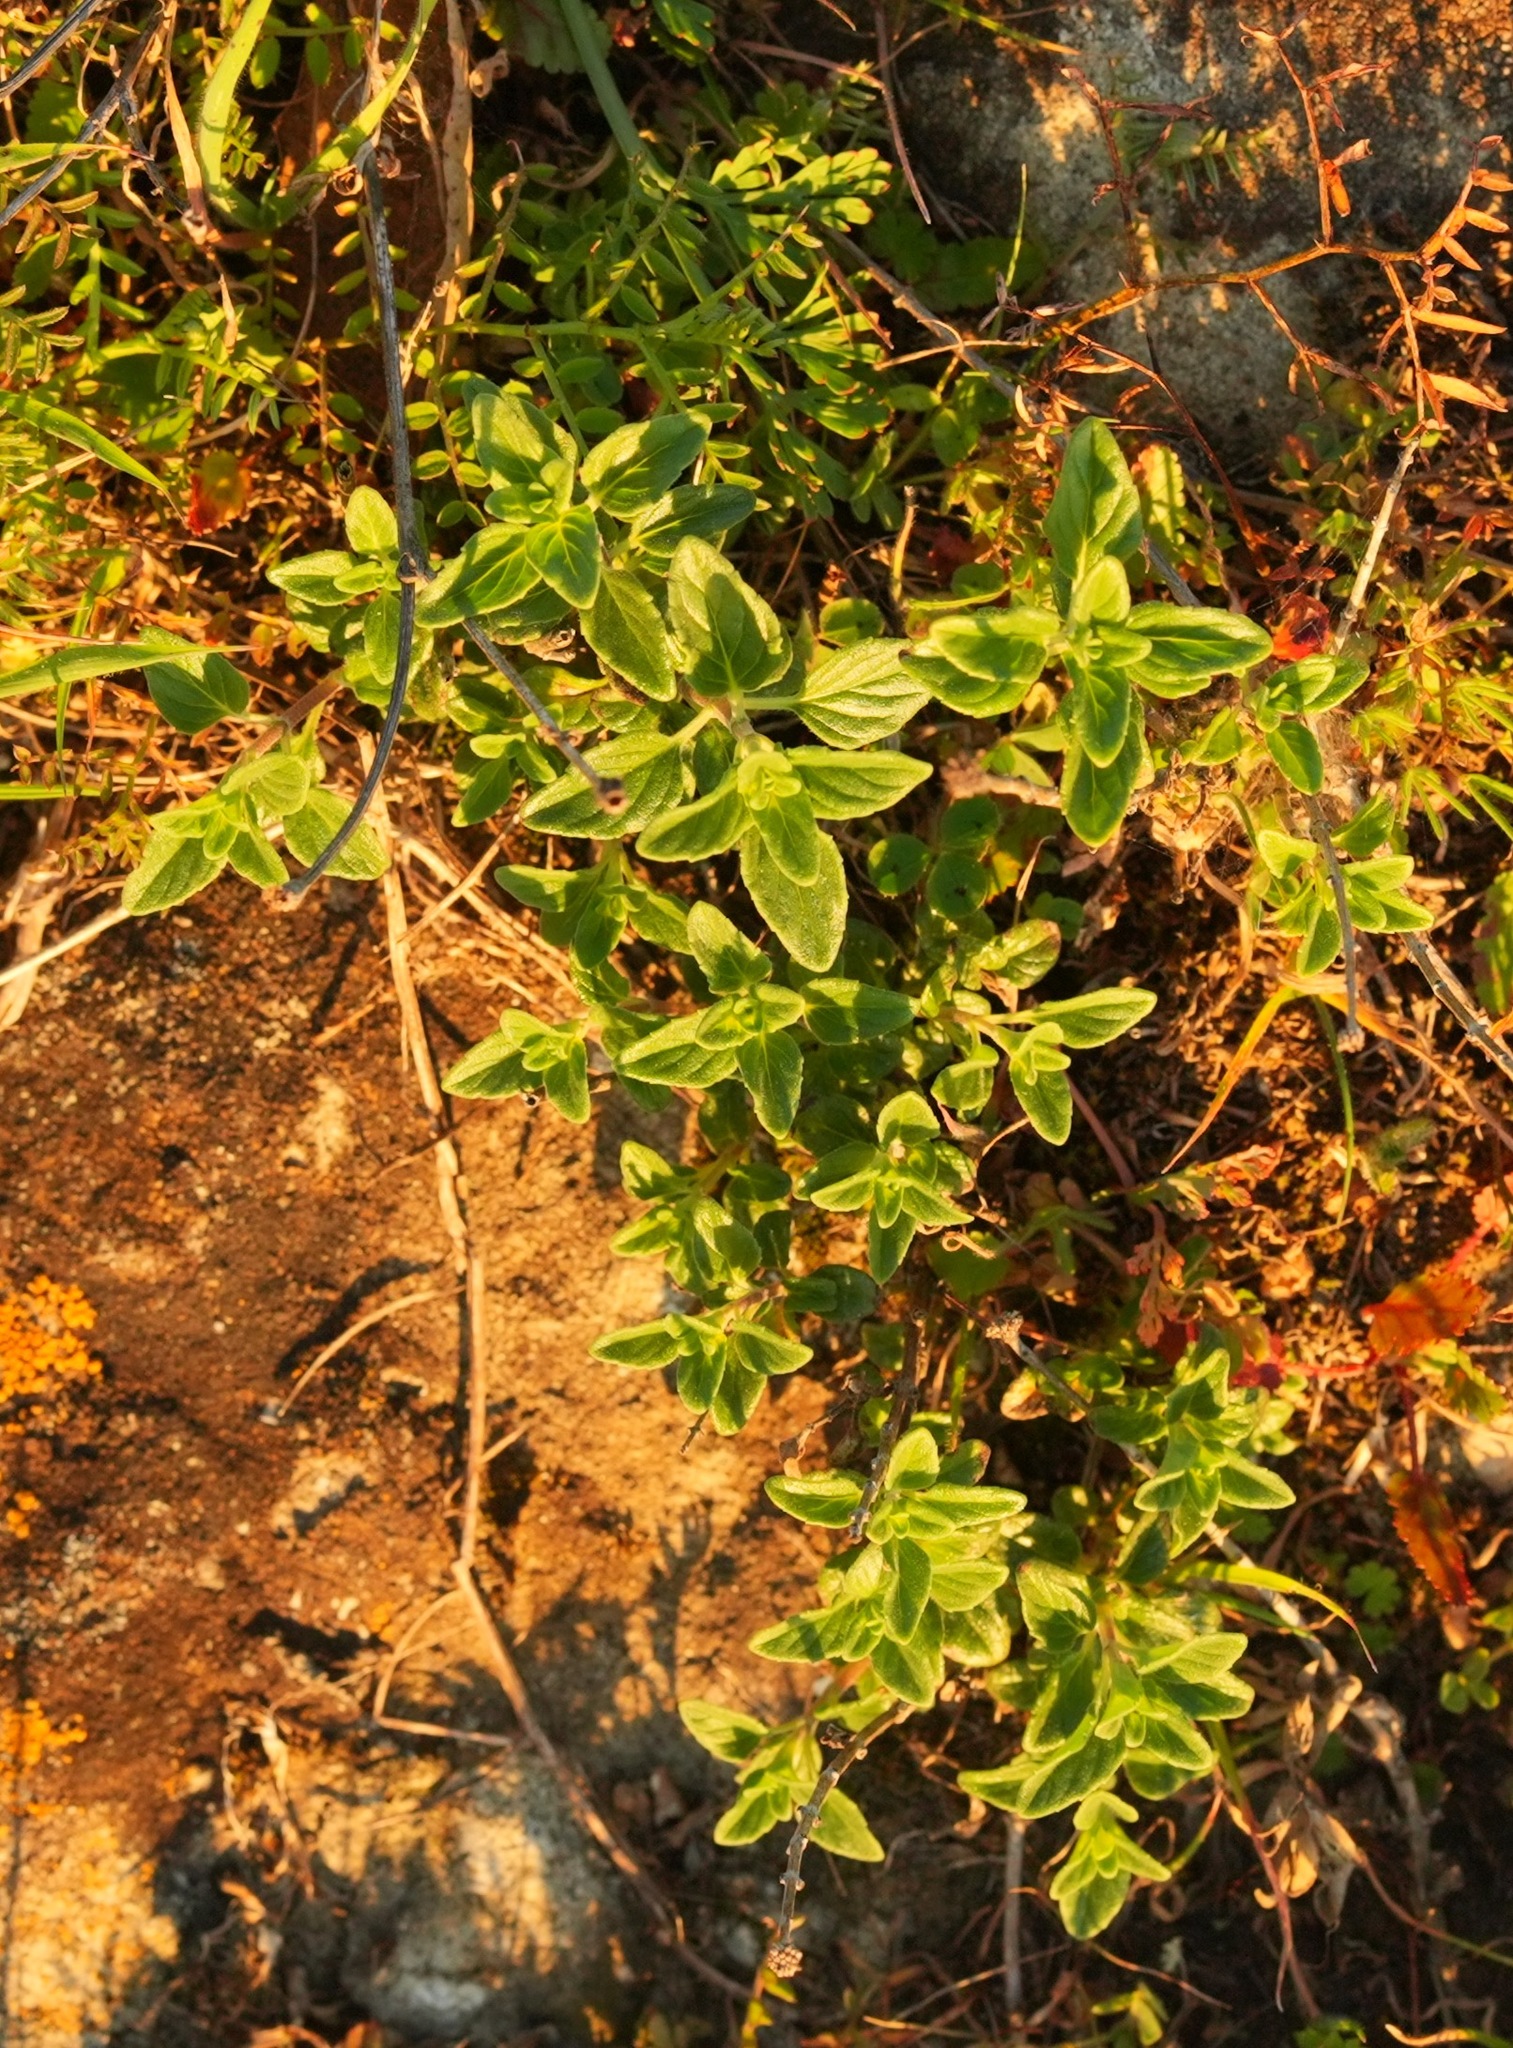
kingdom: Plantae
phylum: Tracheophyta
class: Magnoliopsida
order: Lamiales
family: Lamiaceae
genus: Monardella
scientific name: Monardella odoratissima
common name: Pacific monardella
